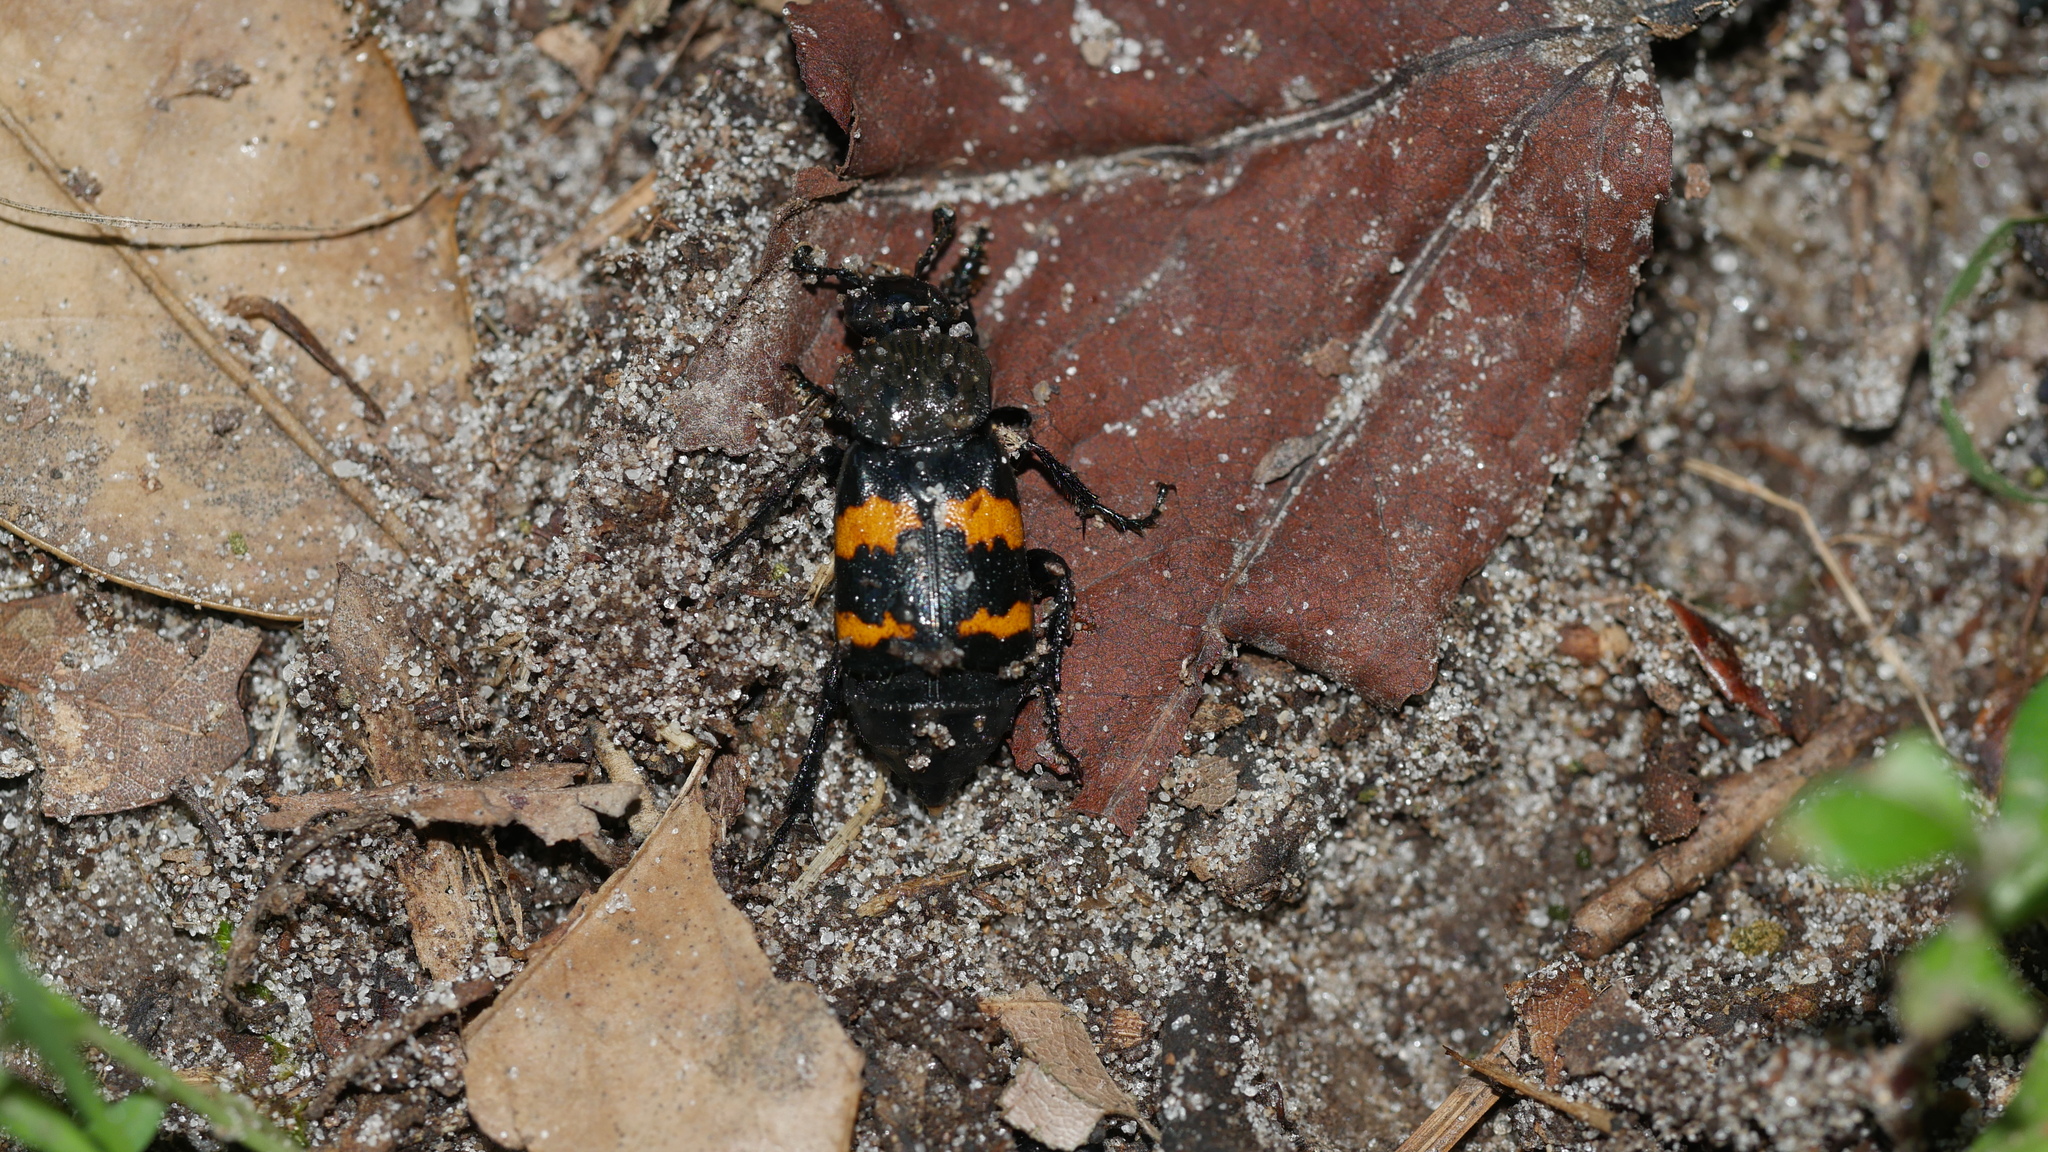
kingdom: Animalia
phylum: Arthropoda
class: Insecta
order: Coleoptera
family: Staphylinidae
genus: Nicrophorus
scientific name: Nicrophorus tomentosus
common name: Tomentose burying beetle
